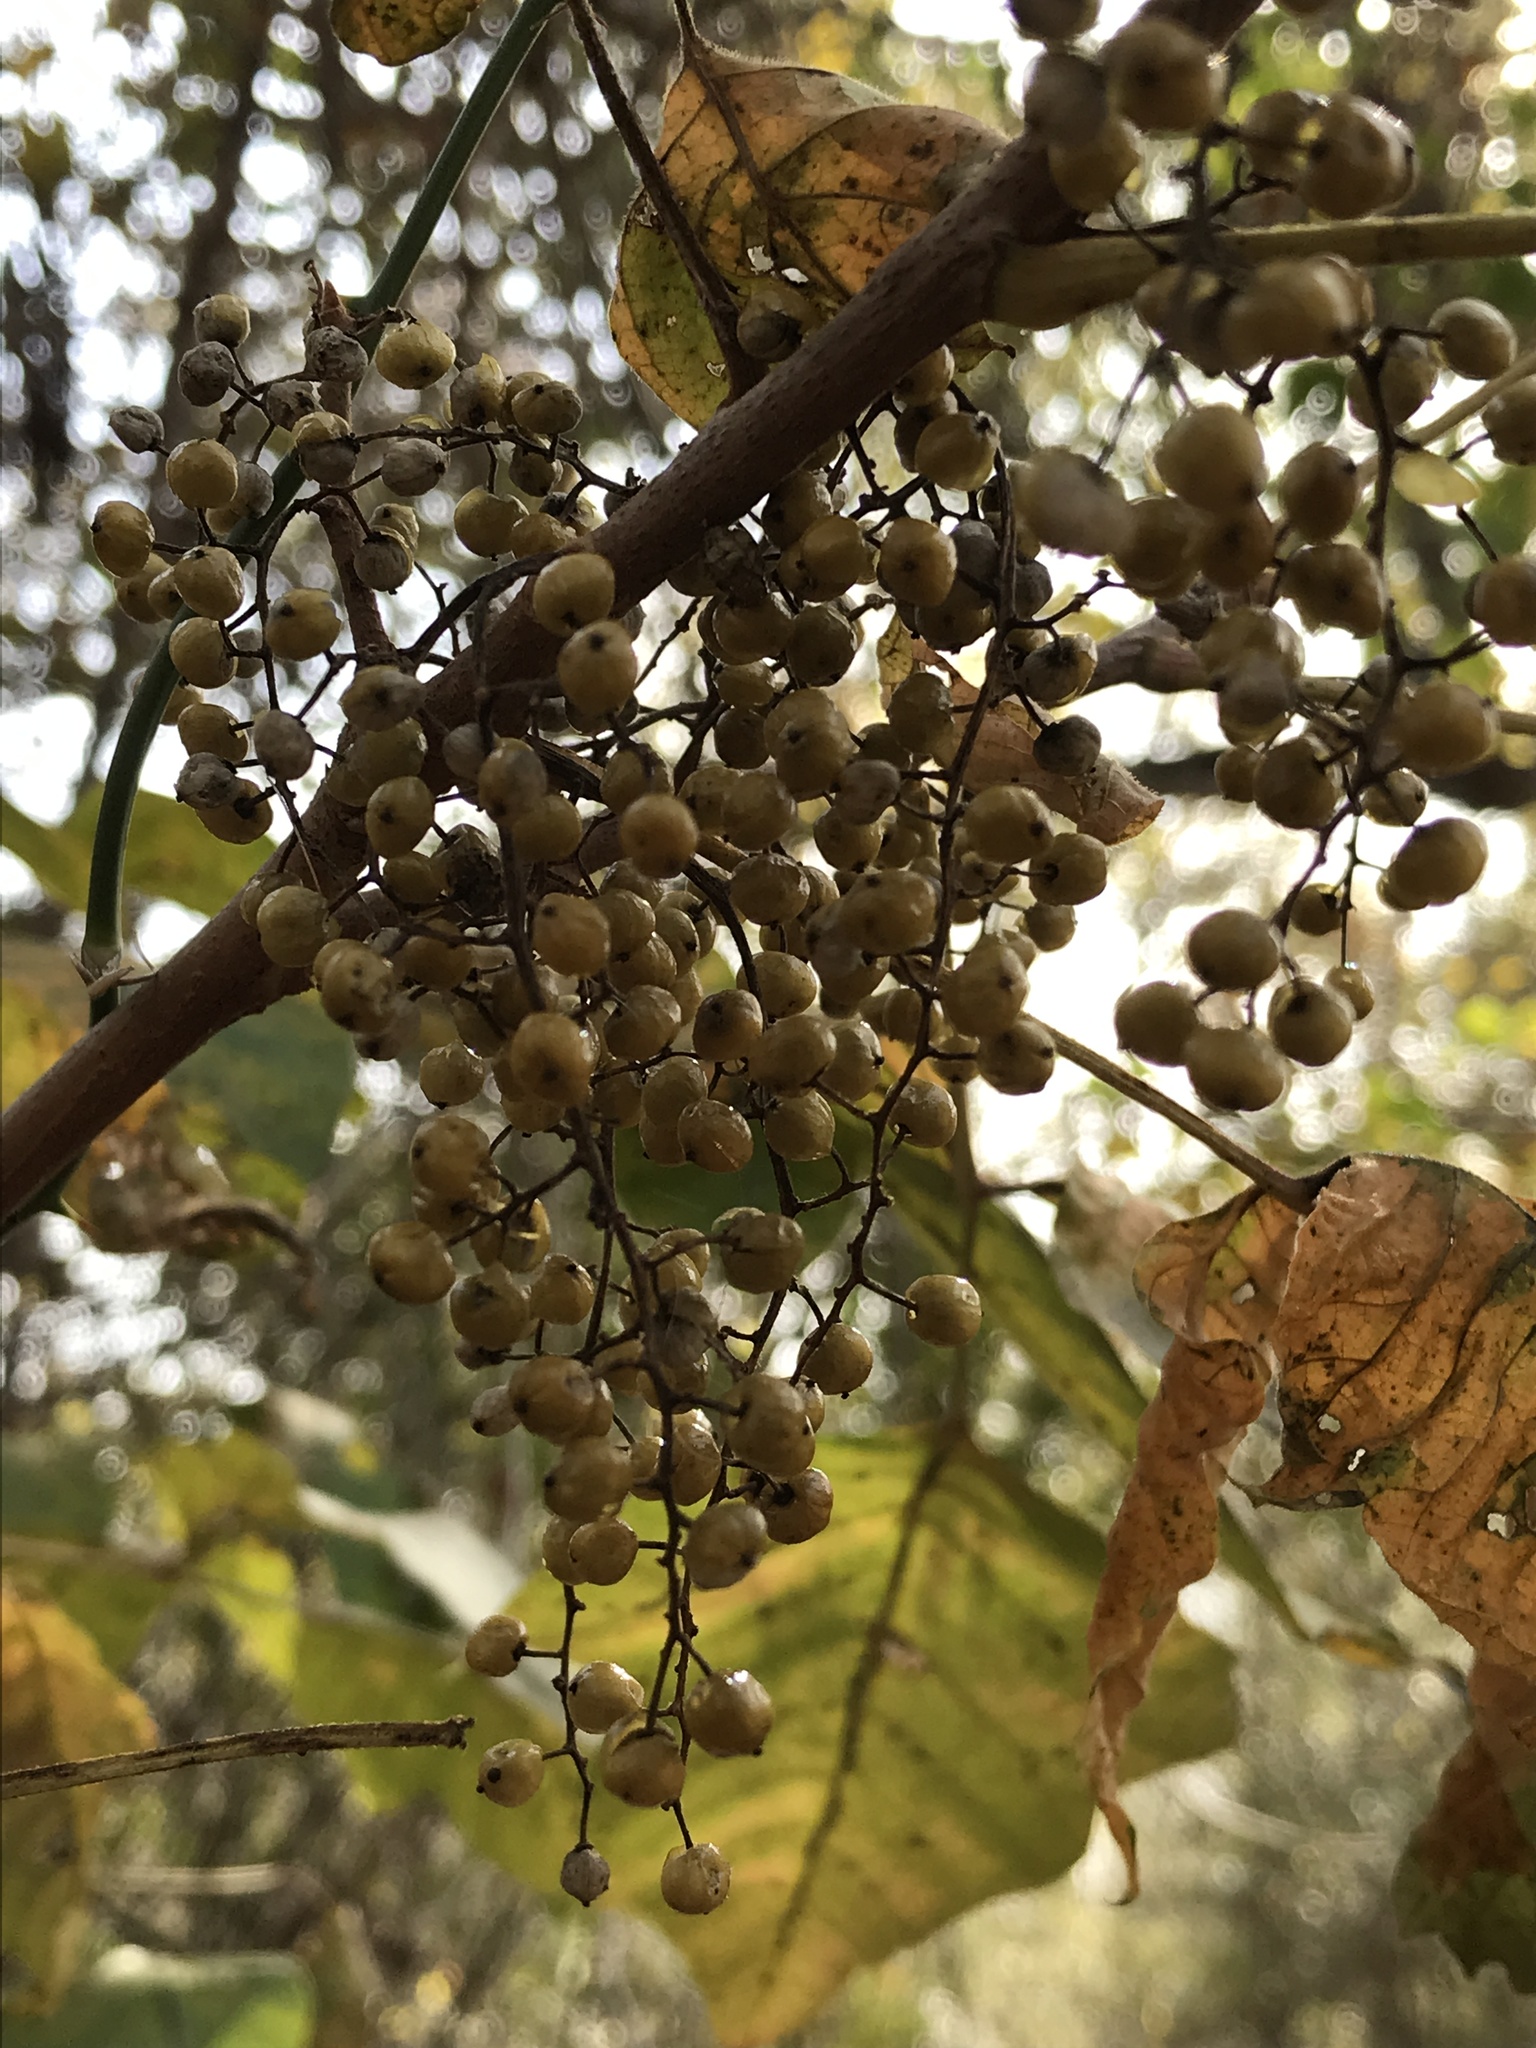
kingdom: Plantae
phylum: Tracheophyta
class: Magnoliopsida
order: Sapindales
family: Anacardiaceae
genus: Toxicodendron
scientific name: Toxicodendron radicans
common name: Poison ivy
